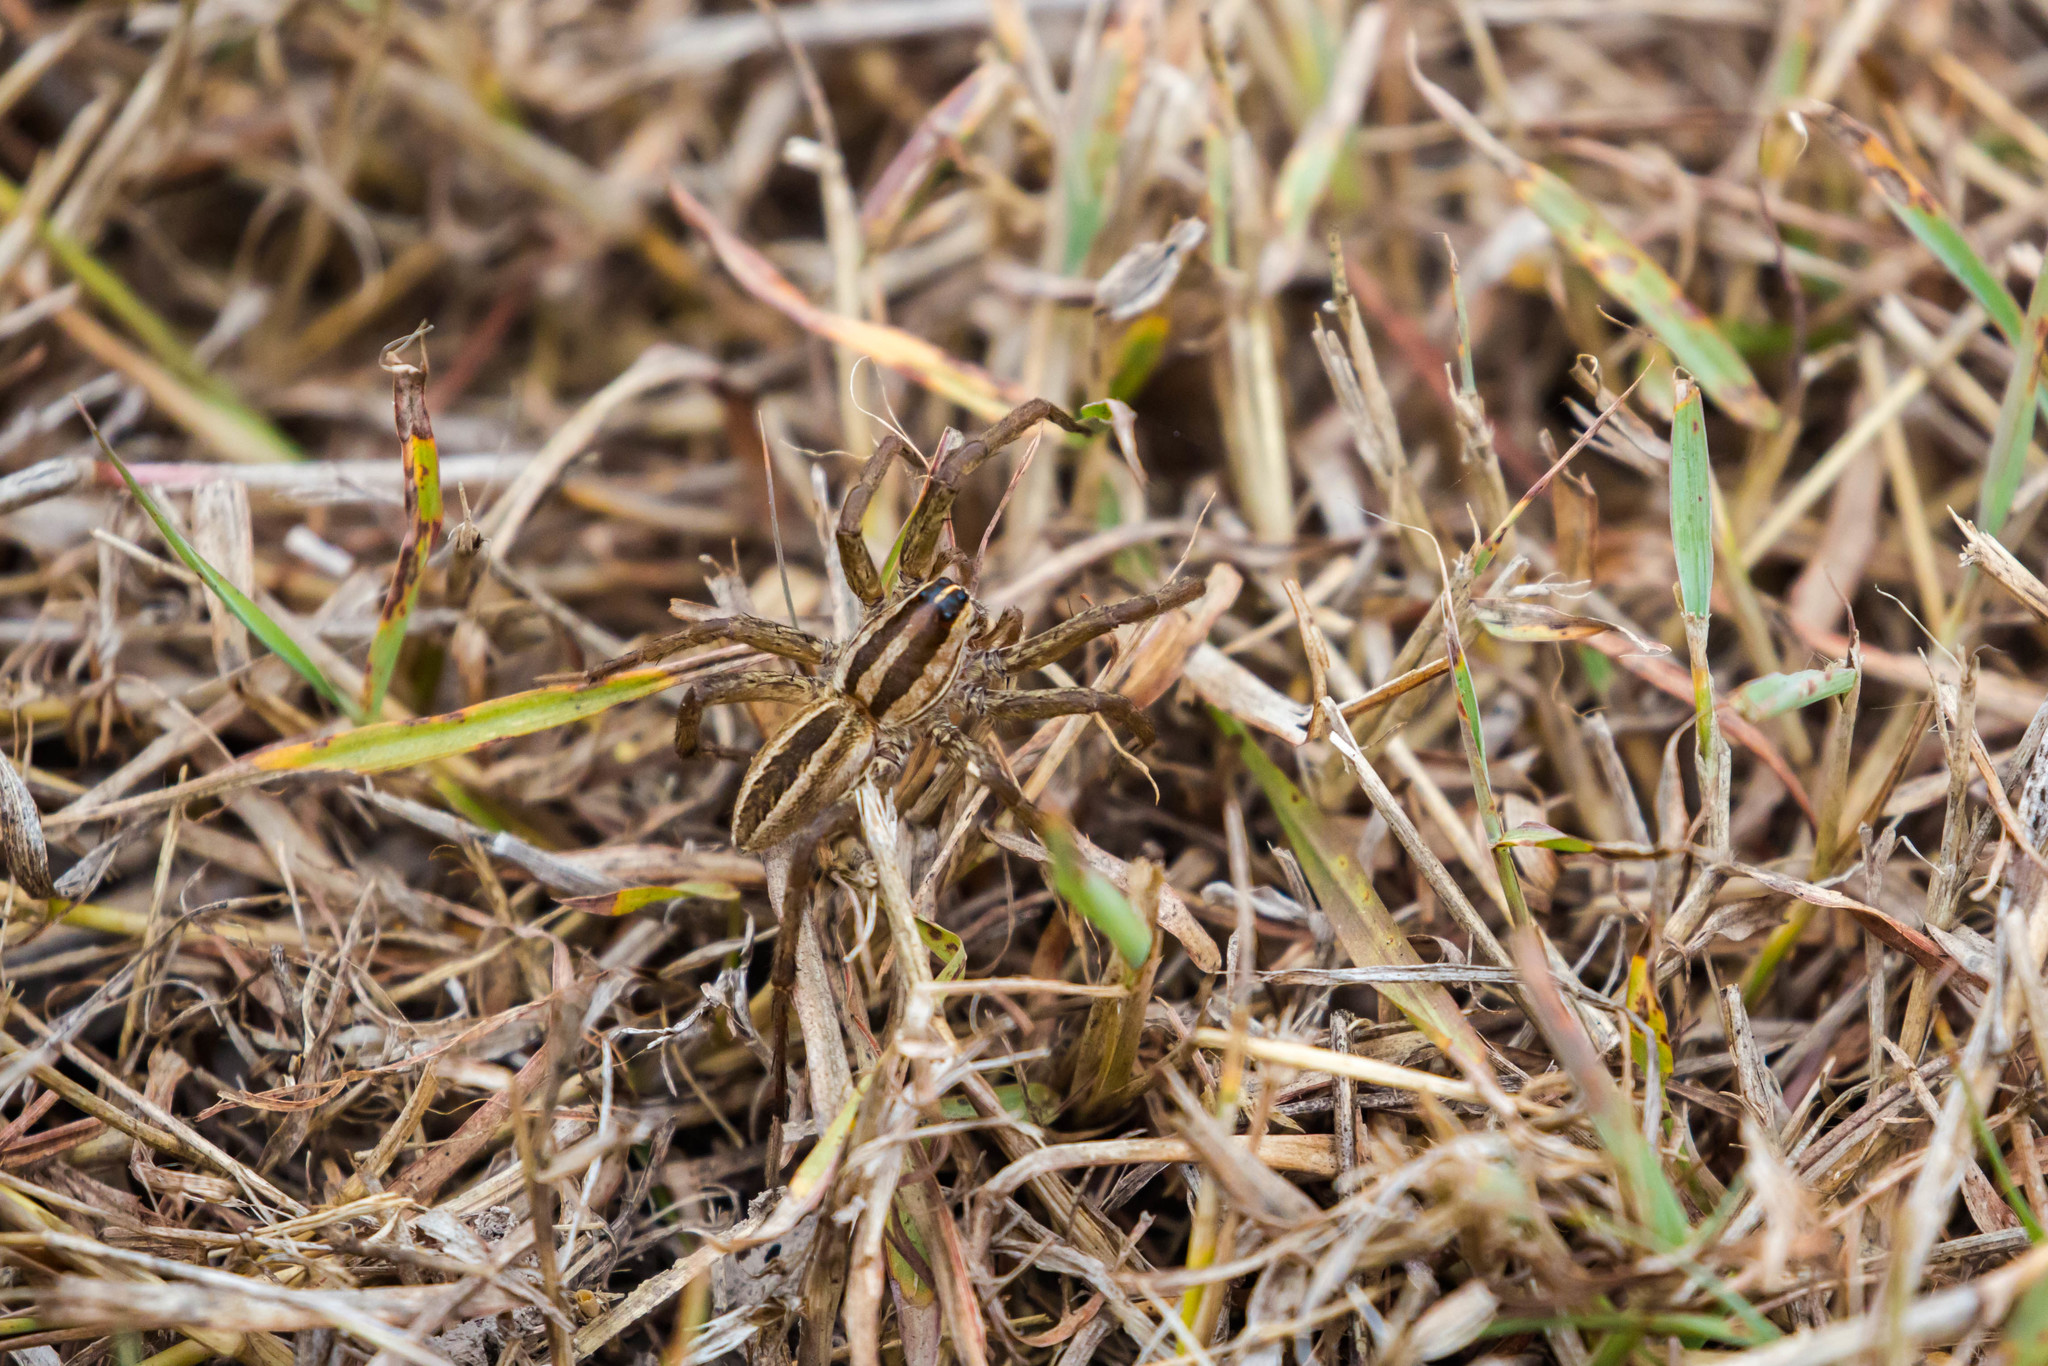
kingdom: Animalia
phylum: Arthropoda
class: Arachnida
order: Araneae
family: Lycosidae
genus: Rabidosa
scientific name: Rabidosa rabida
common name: Rabid wolf spider
